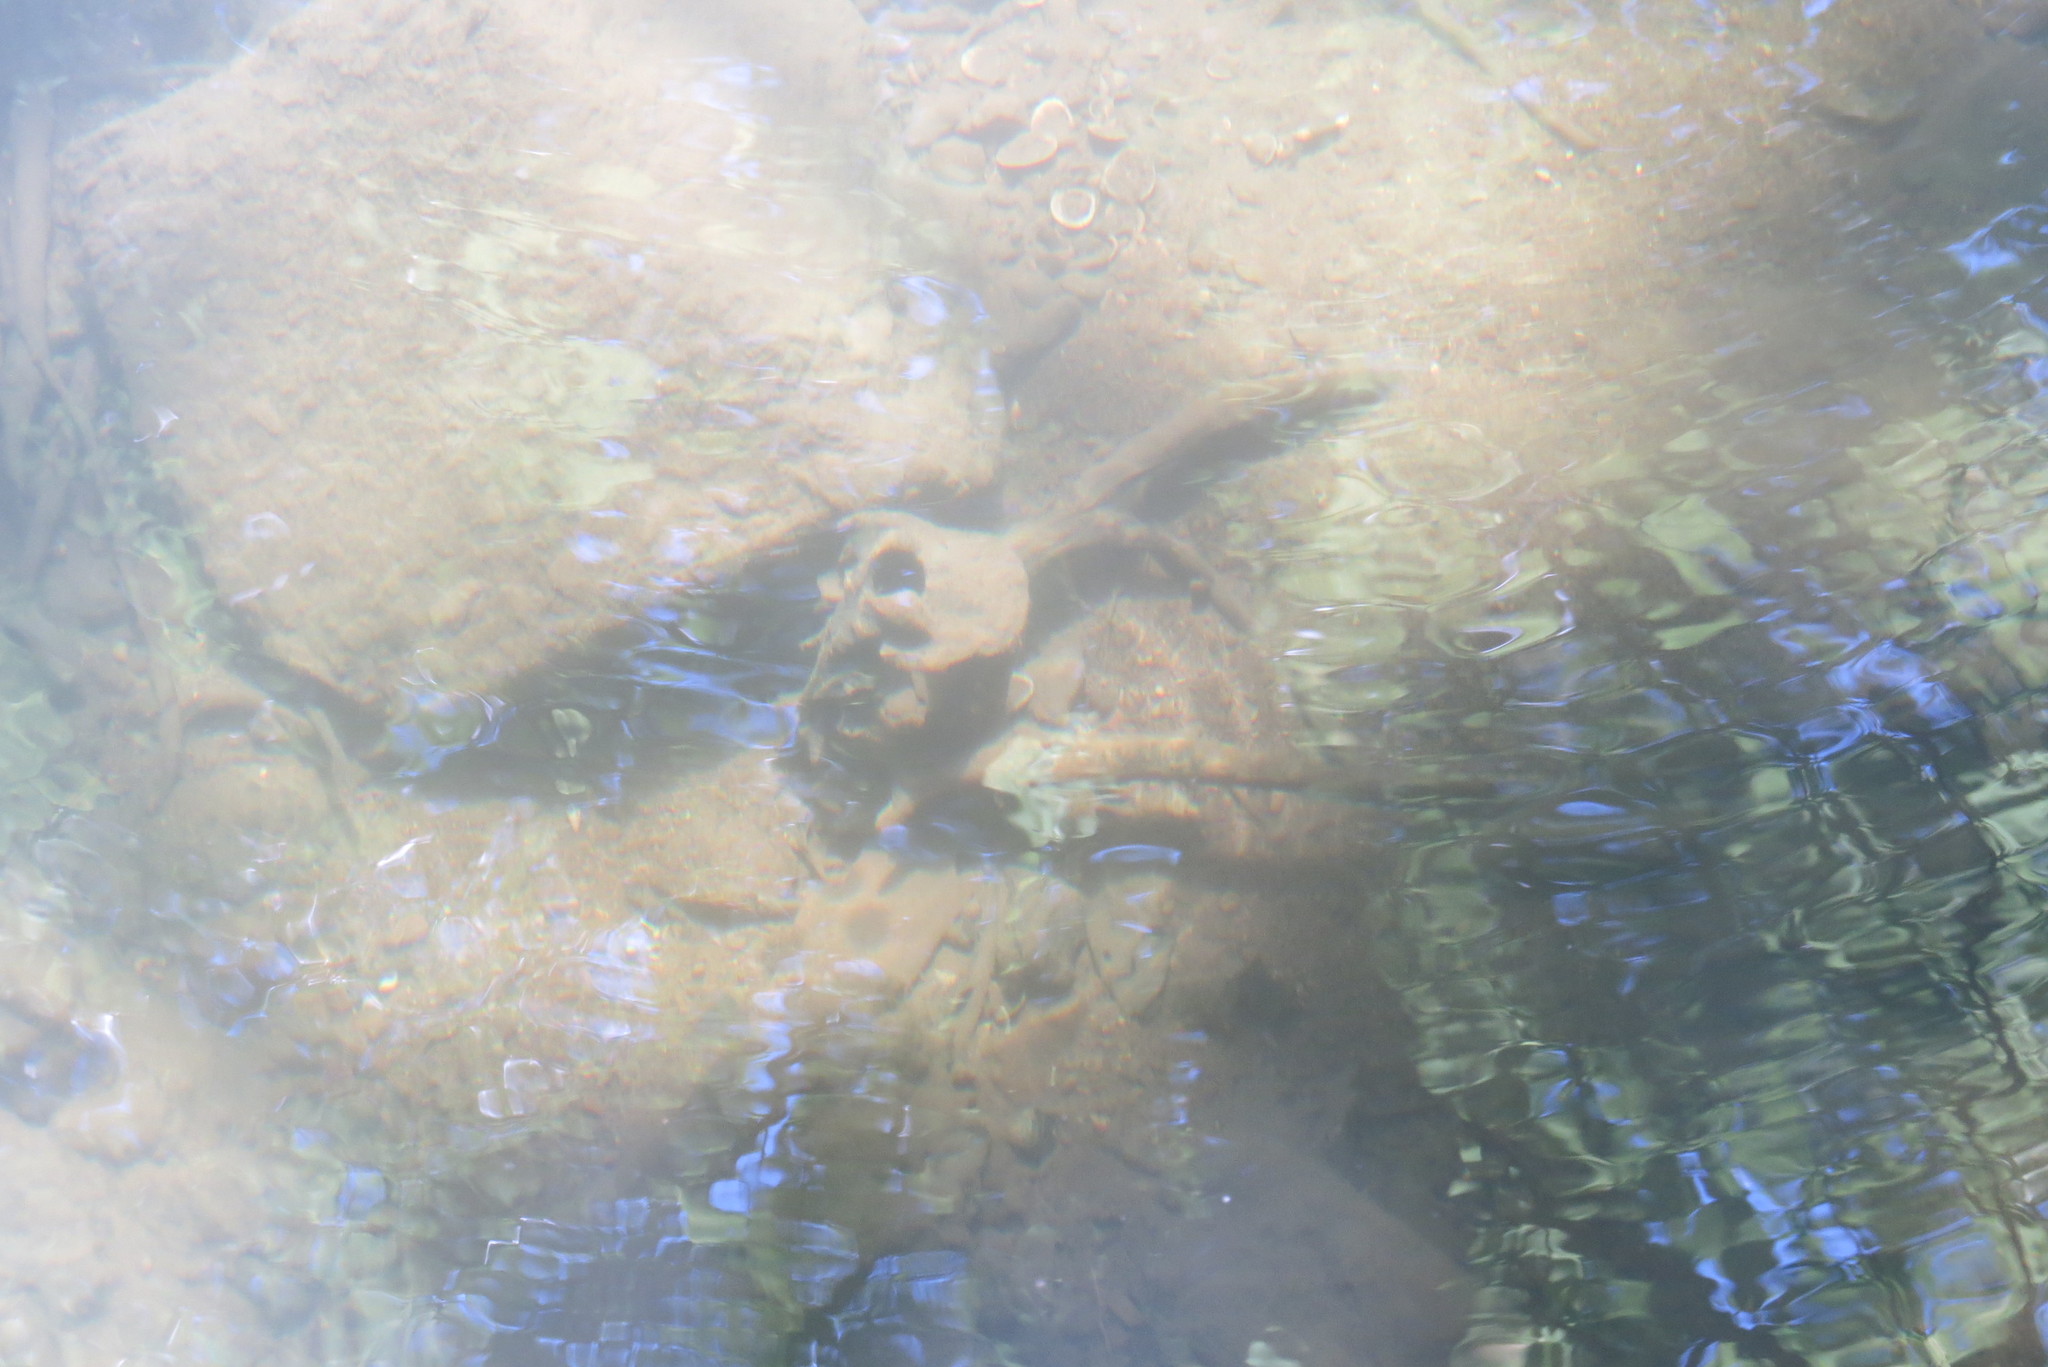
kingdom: Animalia
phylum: Chordata
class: Mammalia
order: Artiodactyla
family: Cervidae
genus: Odocoileus
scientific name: Odocoileus virginianus
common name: White-tailed deer
